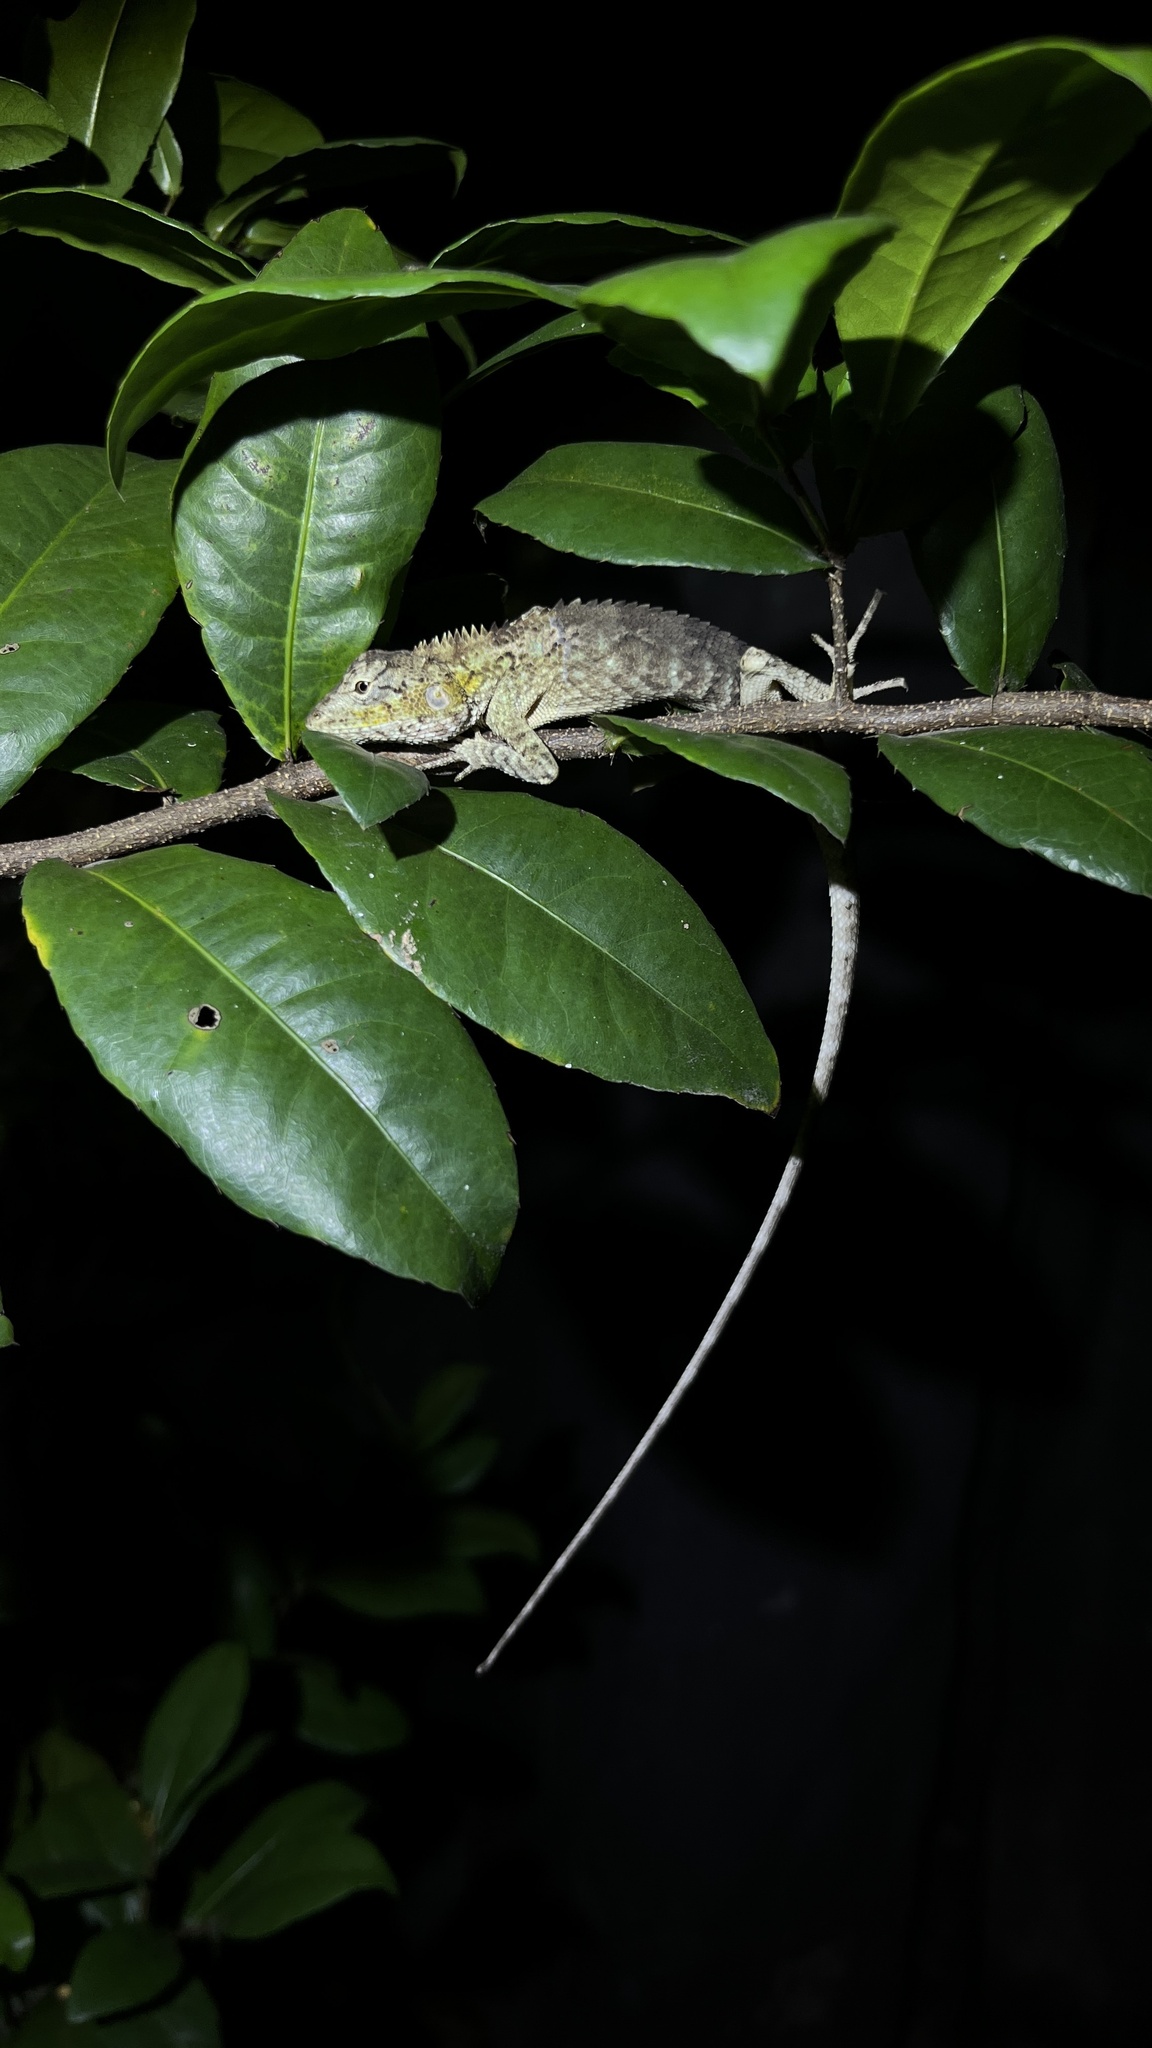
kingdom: Animalia
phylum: Chordata
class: Squamata
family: Agamidae
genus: Calotes
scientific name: Calotes bachae
